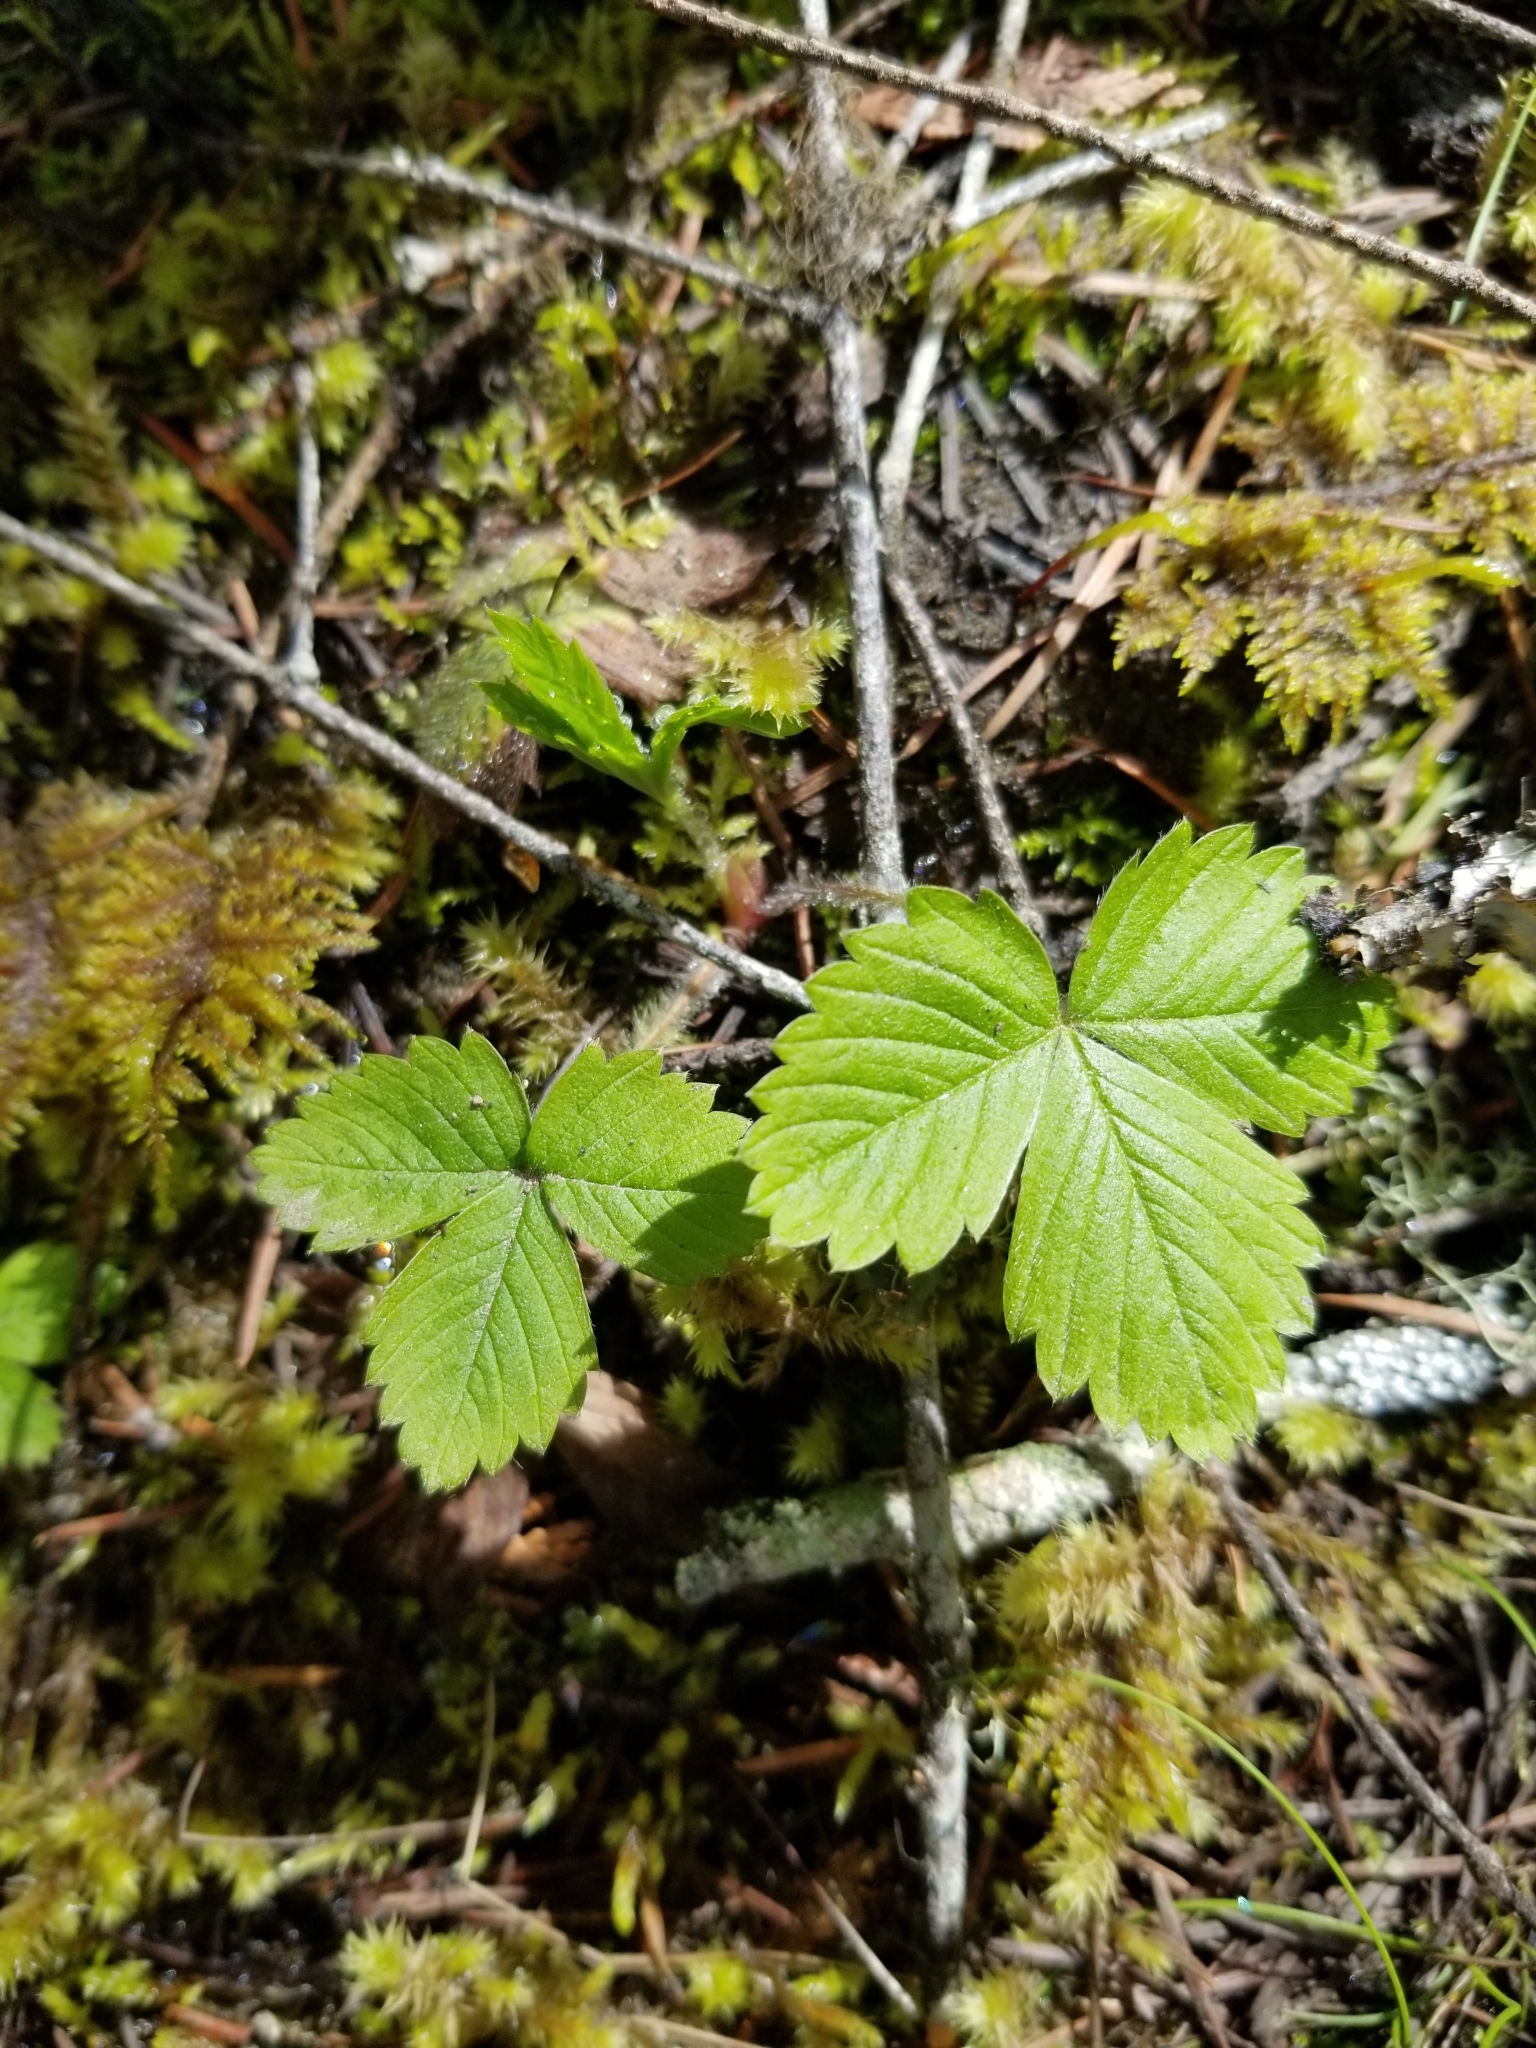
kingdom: Plantae
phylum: Tracheophyta
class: Magnoliopsida
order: Rosales
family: Rosaceae
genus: Fragaria
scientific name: Fragaria vesca
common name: Wild strawberry
